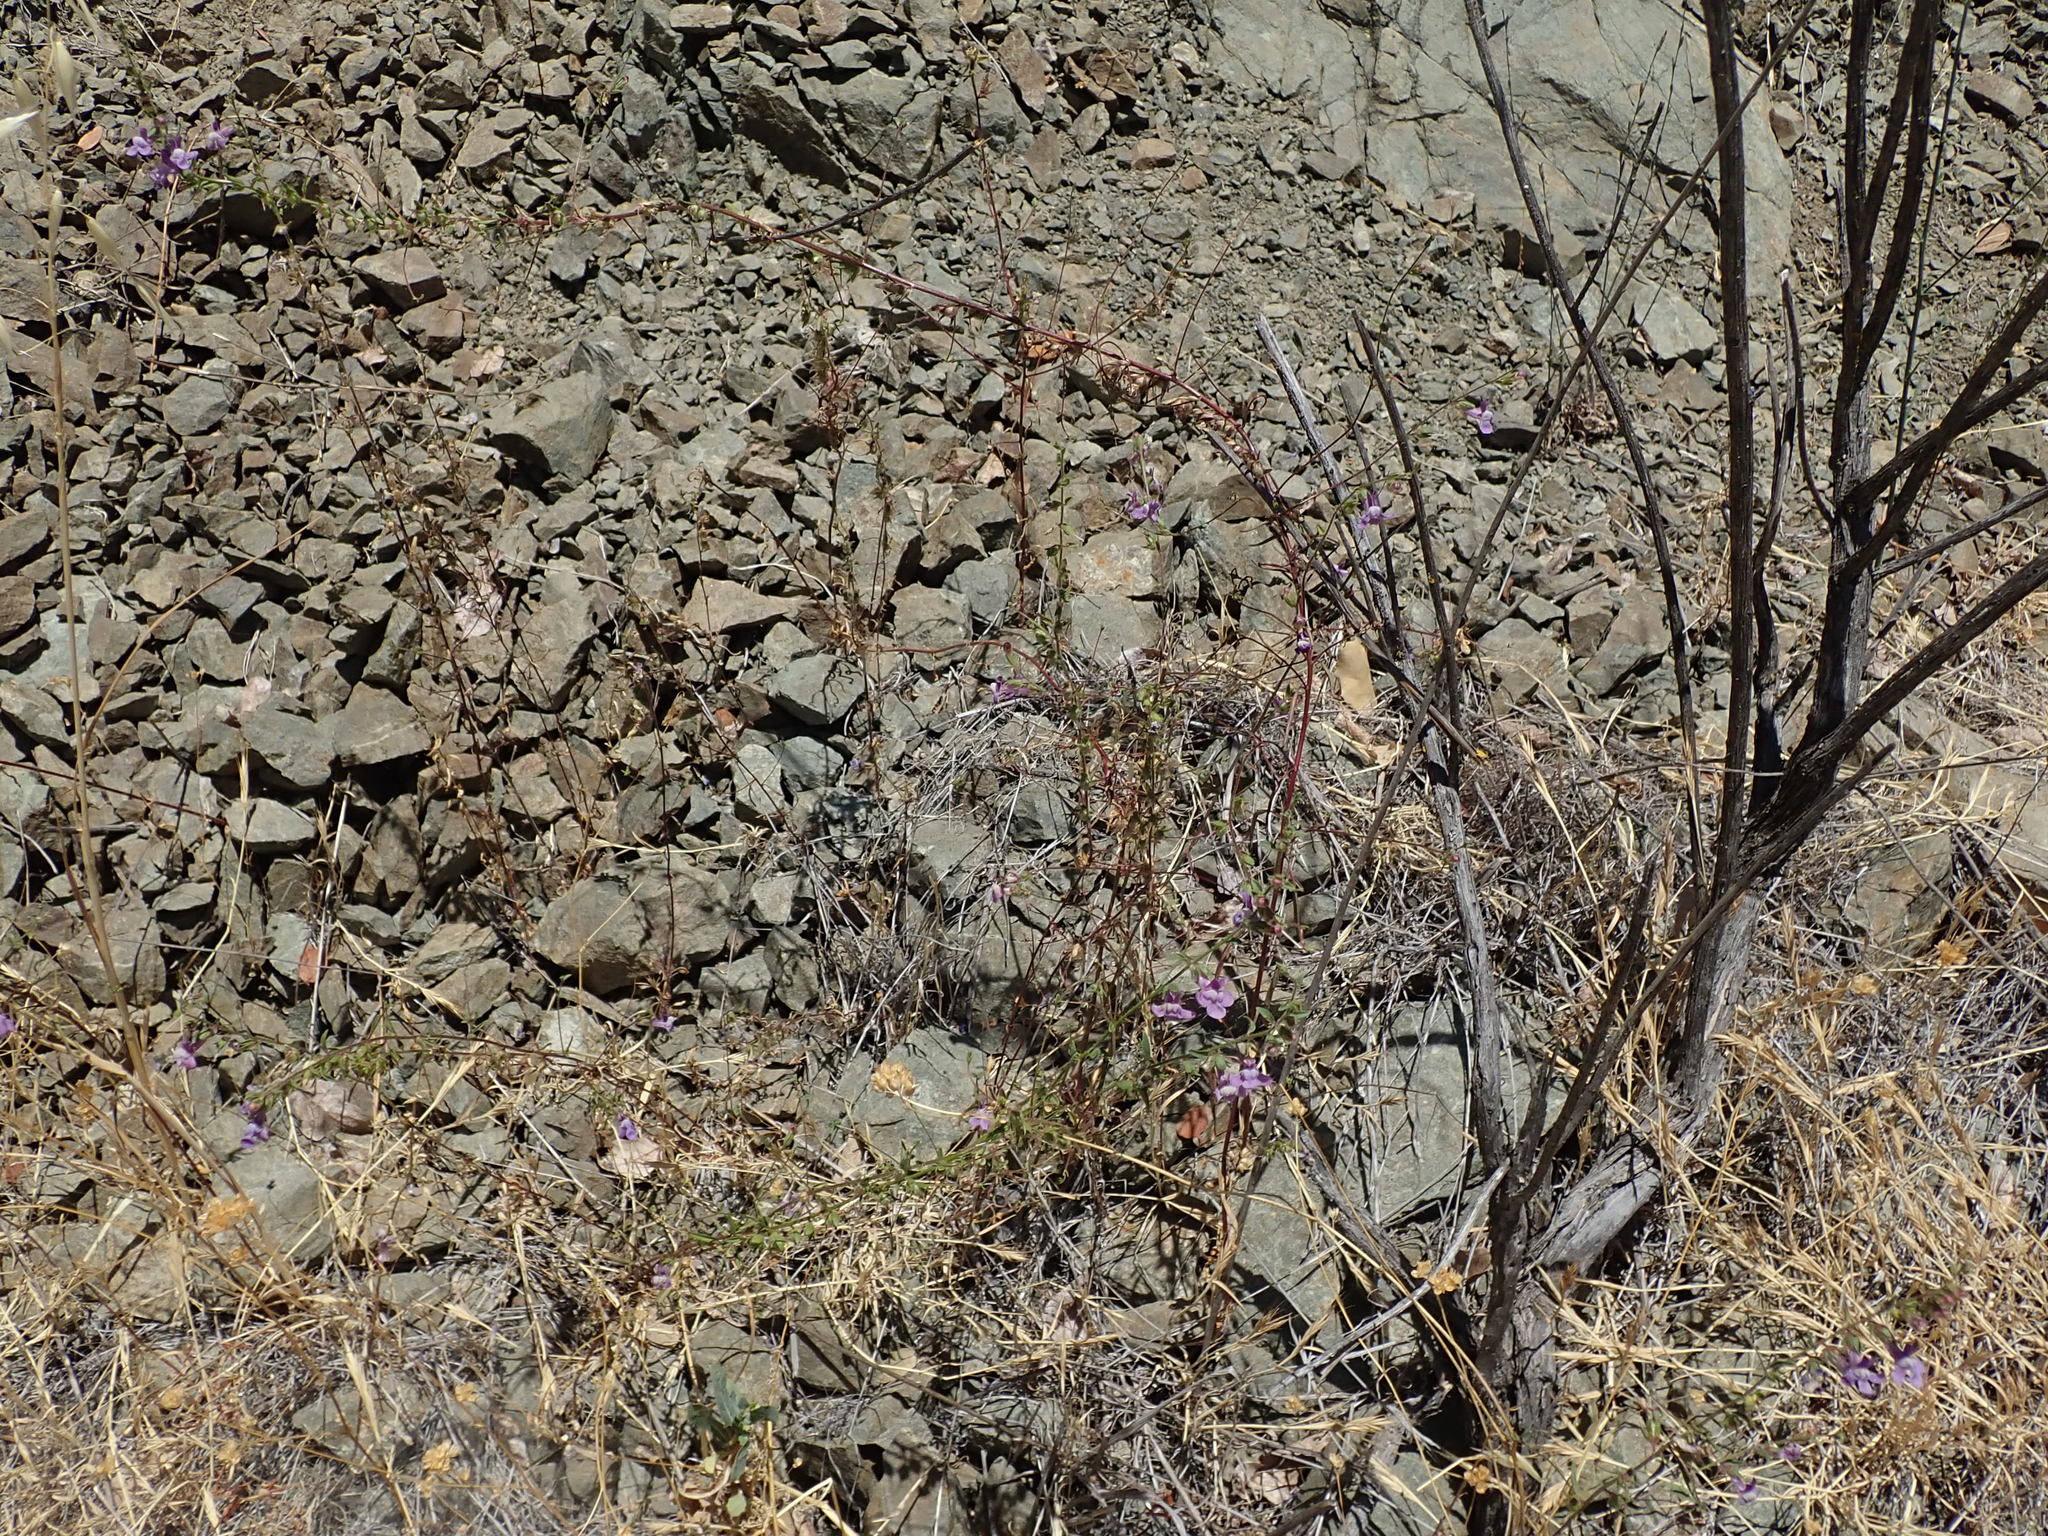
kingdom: Plantae
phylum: Tracheophyta
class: Magnoliopsida
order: Lamiales
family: Plantaginaceae
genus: Sairocarpus
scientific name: Sairocarpus vexillocalyculatus
